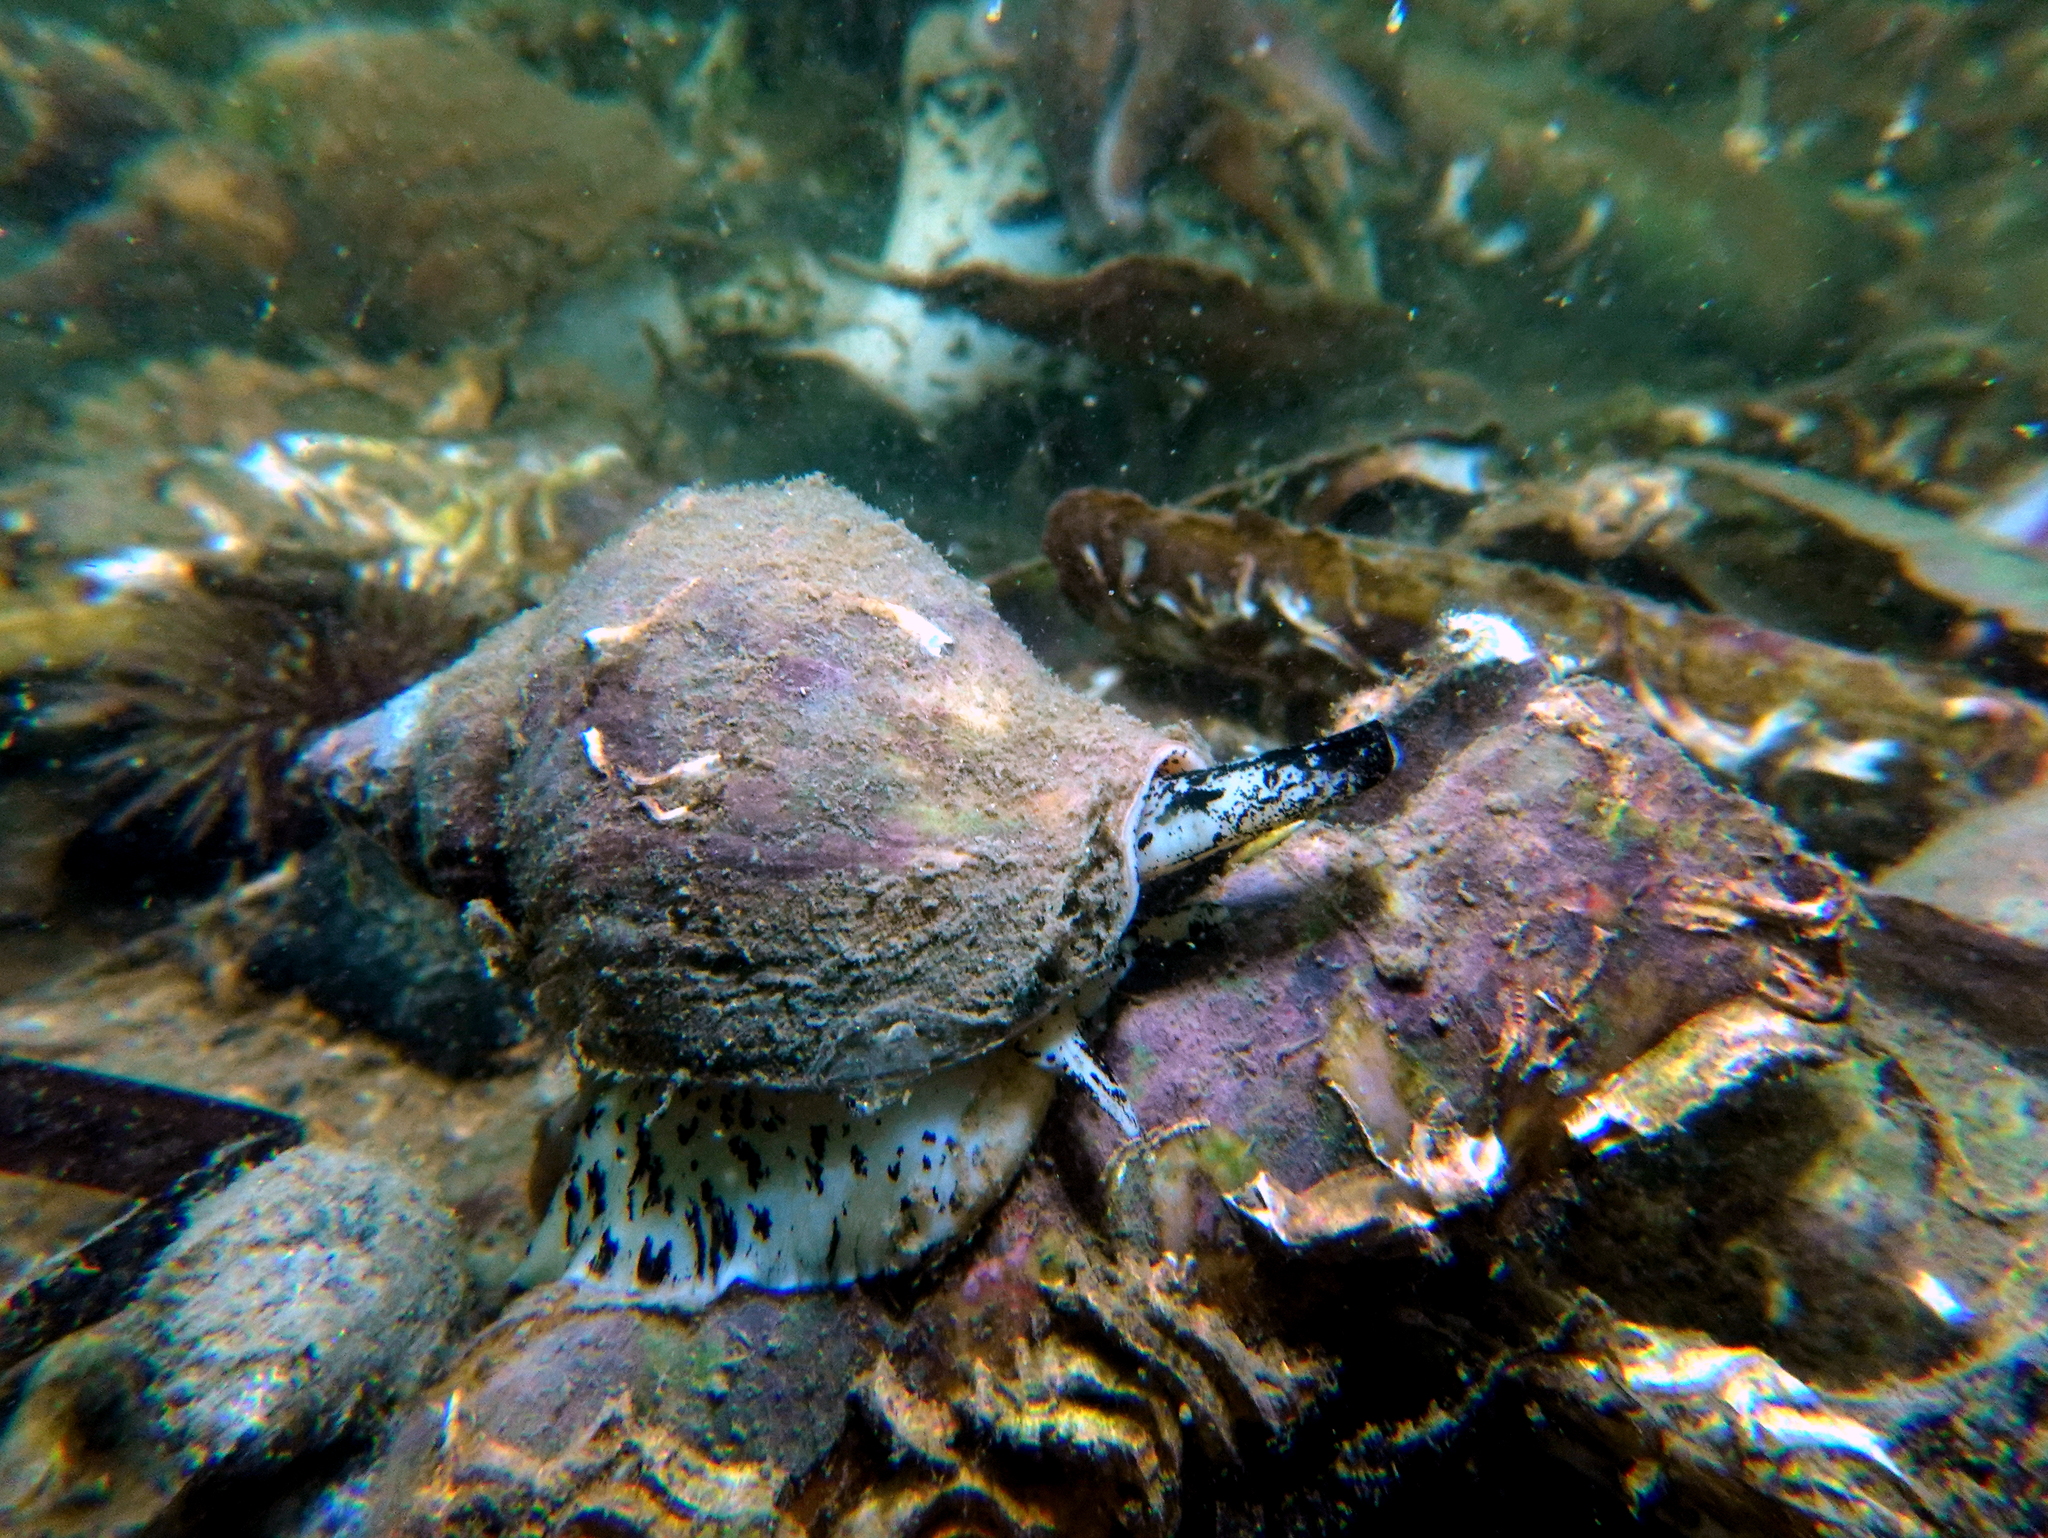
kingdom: Animalia
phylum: Mollusca
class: Gastropoda
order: Neogastropoda
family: Buccinidae
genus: Buccinum
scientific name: Buccinum undatum
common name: Common whelk
